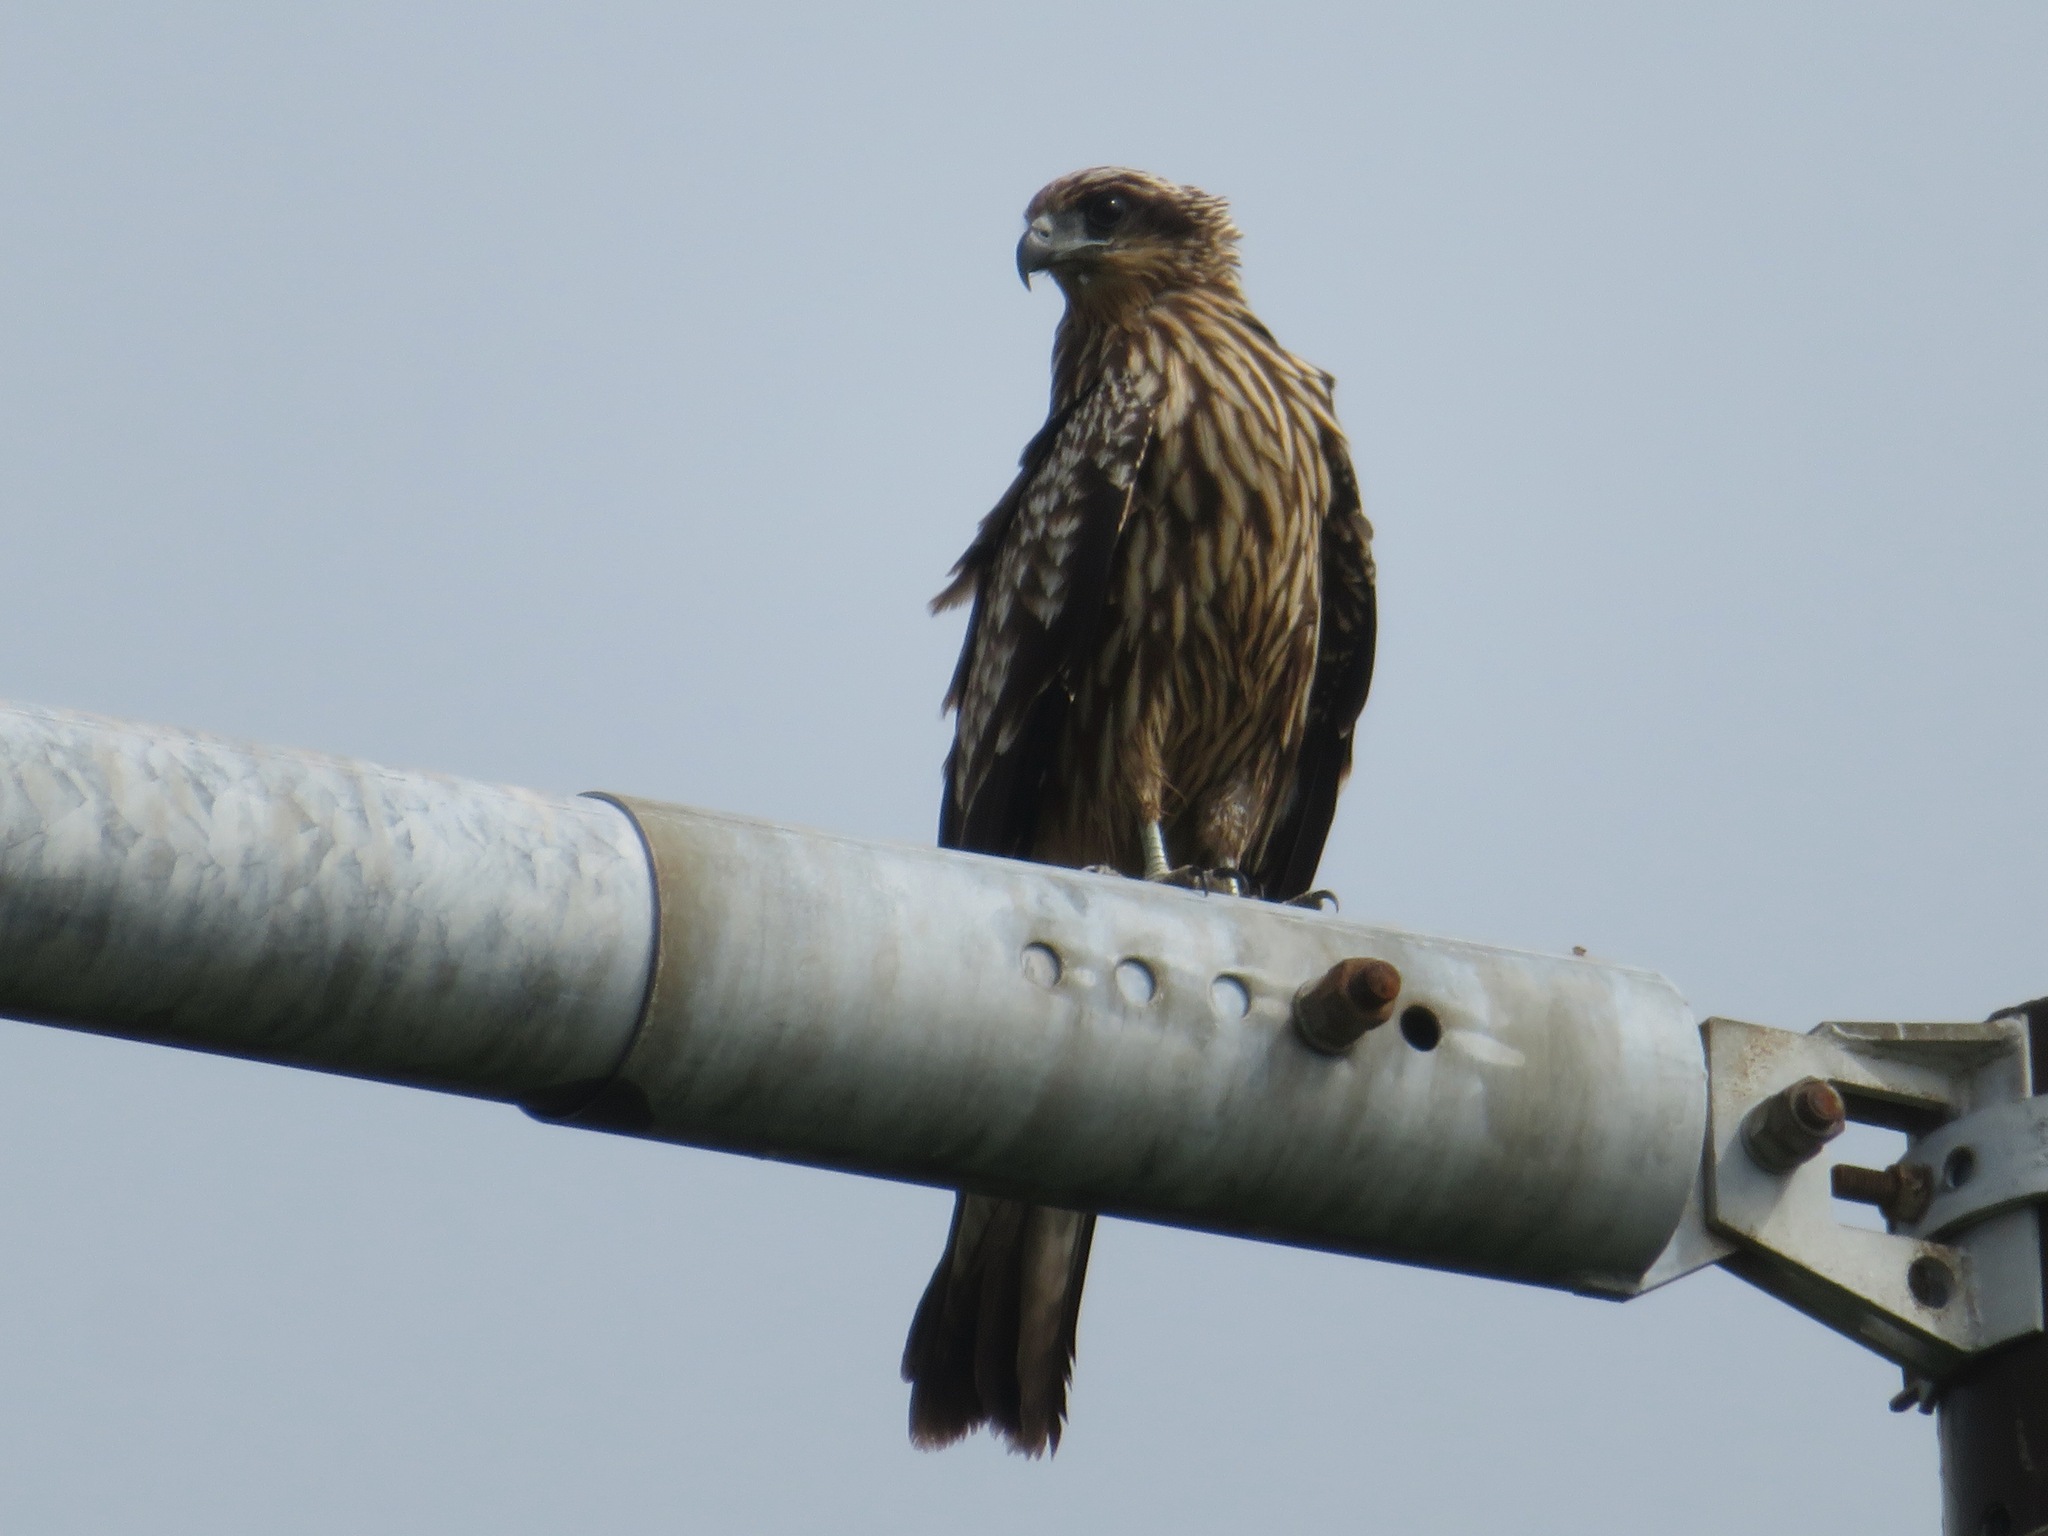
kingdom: Animalia
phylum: Chordata
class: Aves
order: Accipitriformes
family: Accipitridae
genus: Milvus
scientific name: Milvus migrans
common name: Black kite
